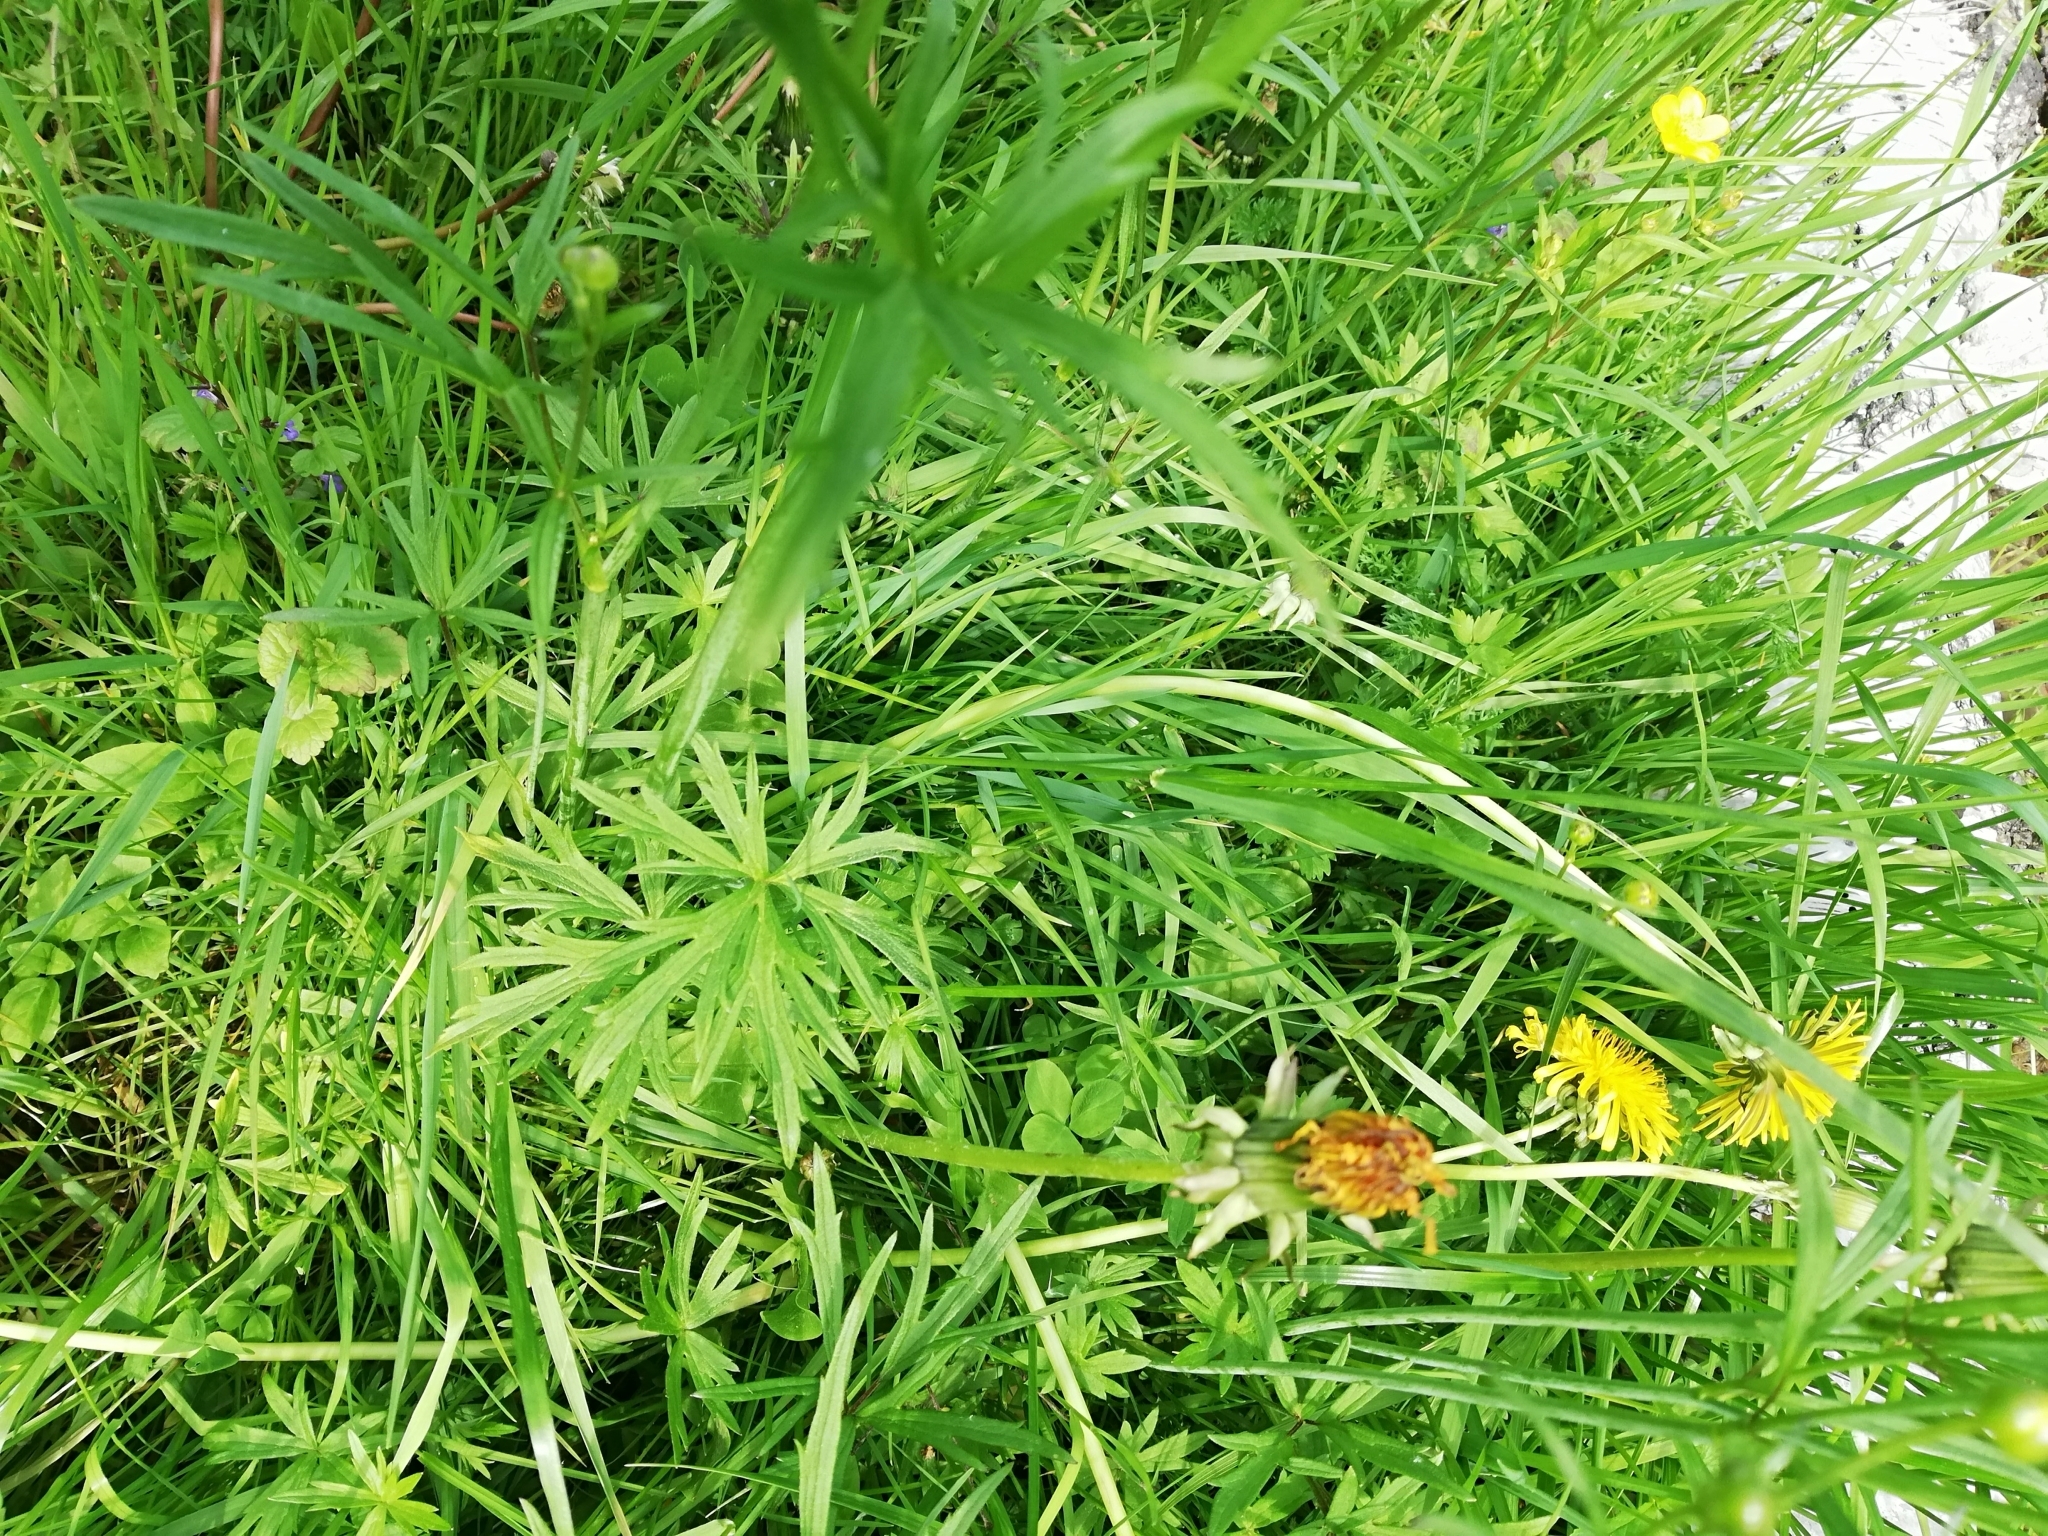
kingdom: Plantae
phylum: Tracheophyta
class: Magnoliopsida
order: Ranunculales
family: Ranunculaceae
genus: Ranunculus
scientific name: Ranunculus acris
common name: Meadow buttercup
